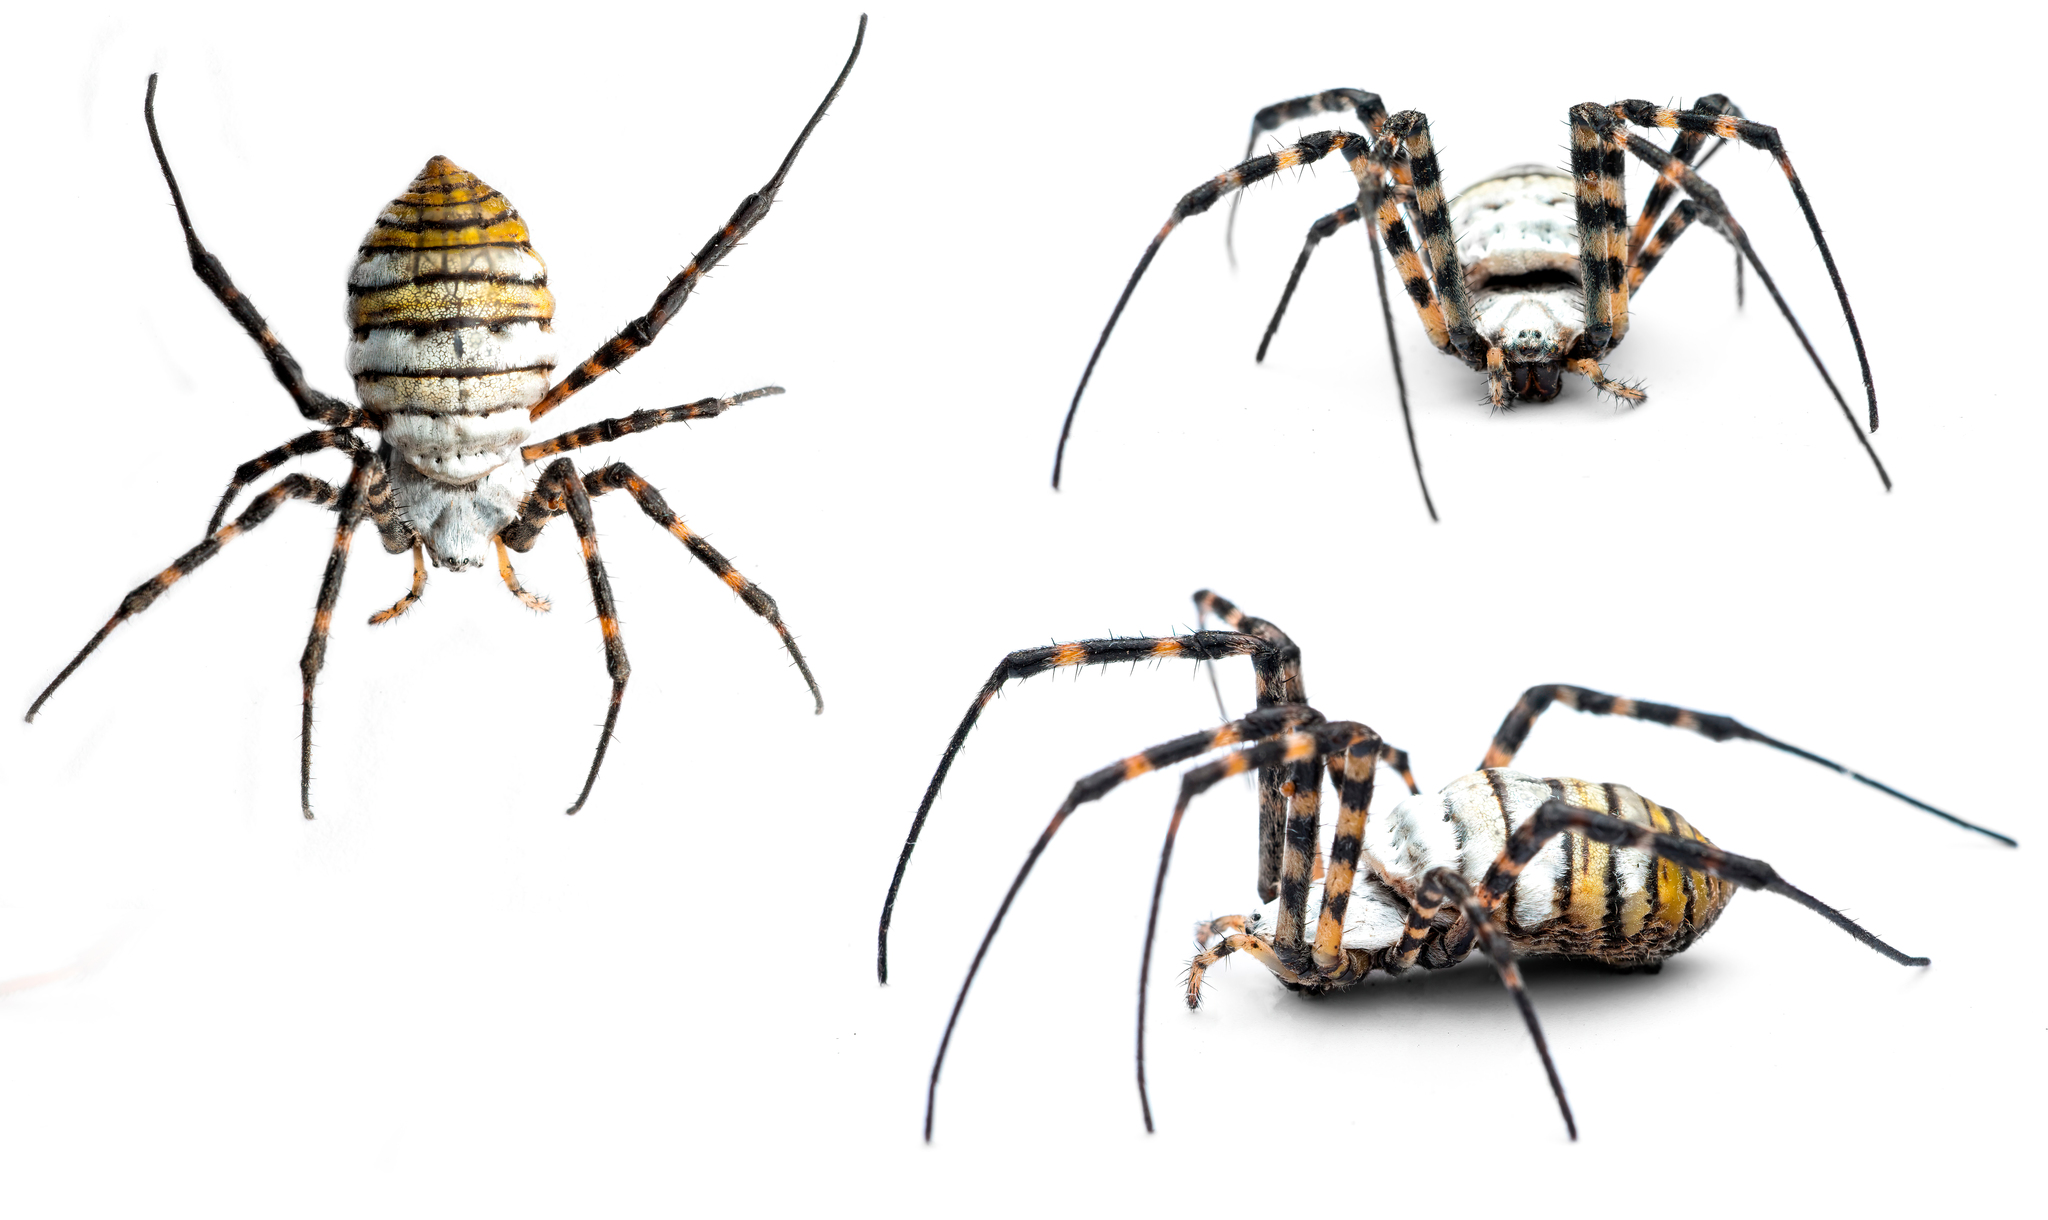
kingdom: Animalia
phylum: Arthropoda
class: Arachnida
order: Araneae
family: Araneidae
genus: Argiope
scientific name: Argiope trifasciata
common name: Banded garden spider
